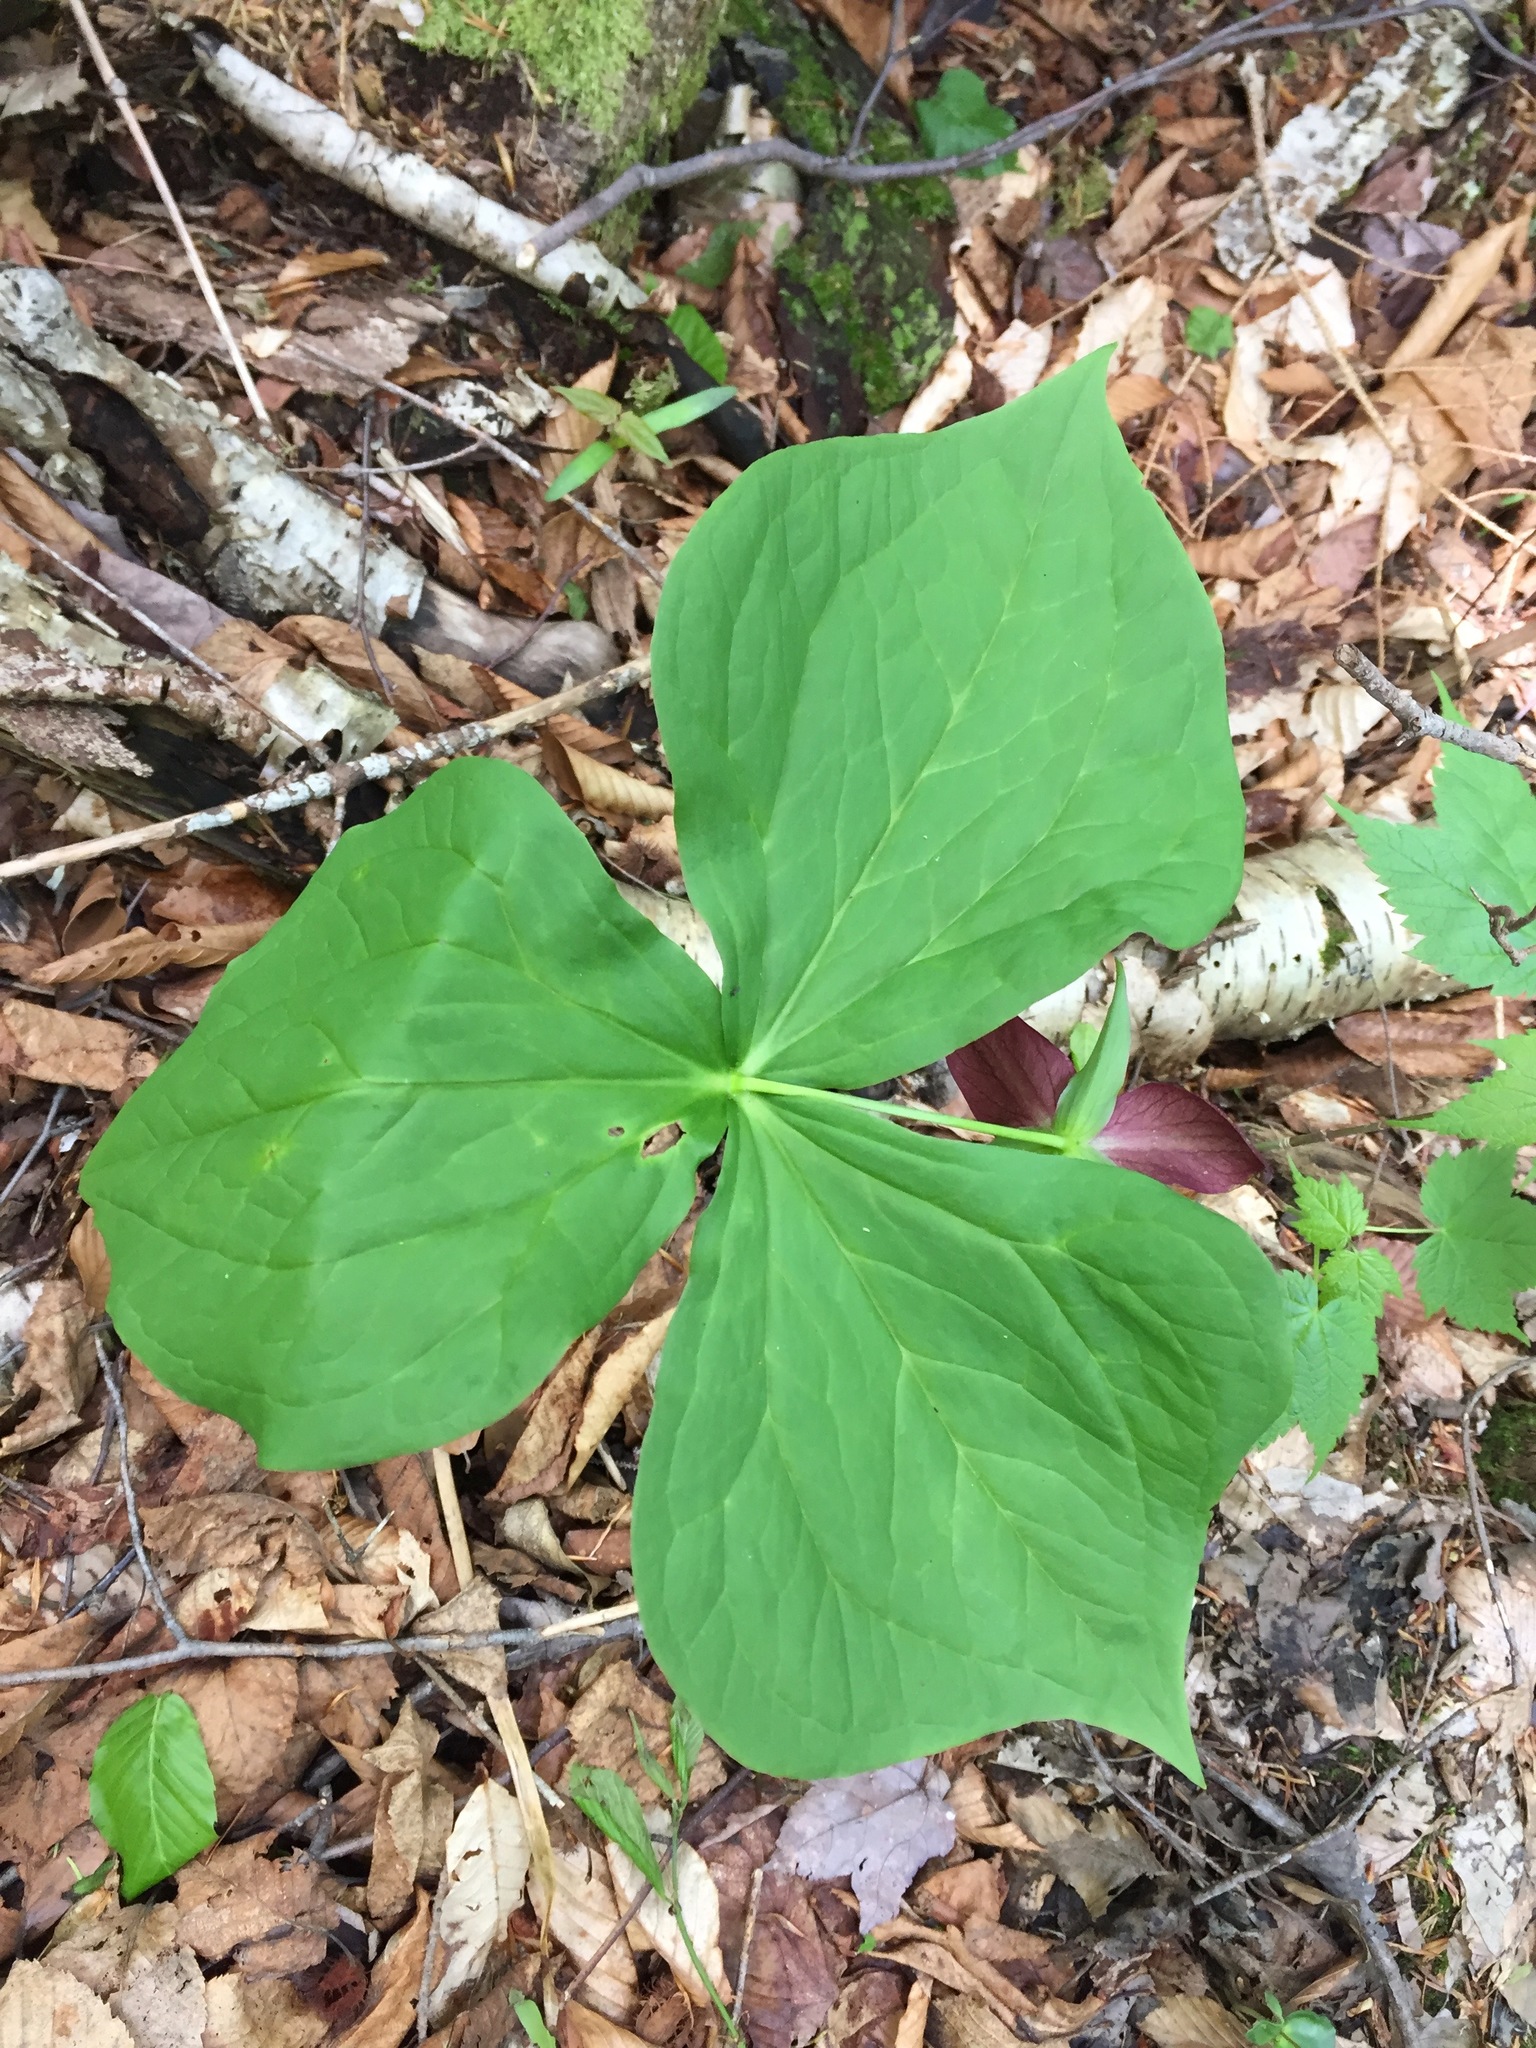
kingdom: Plantae
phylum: Tracheophyta
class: Liliopsida
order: Liliales
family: Melanthiaceae
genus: Trillium
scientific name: Trillium erectum
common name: Purple trillium
